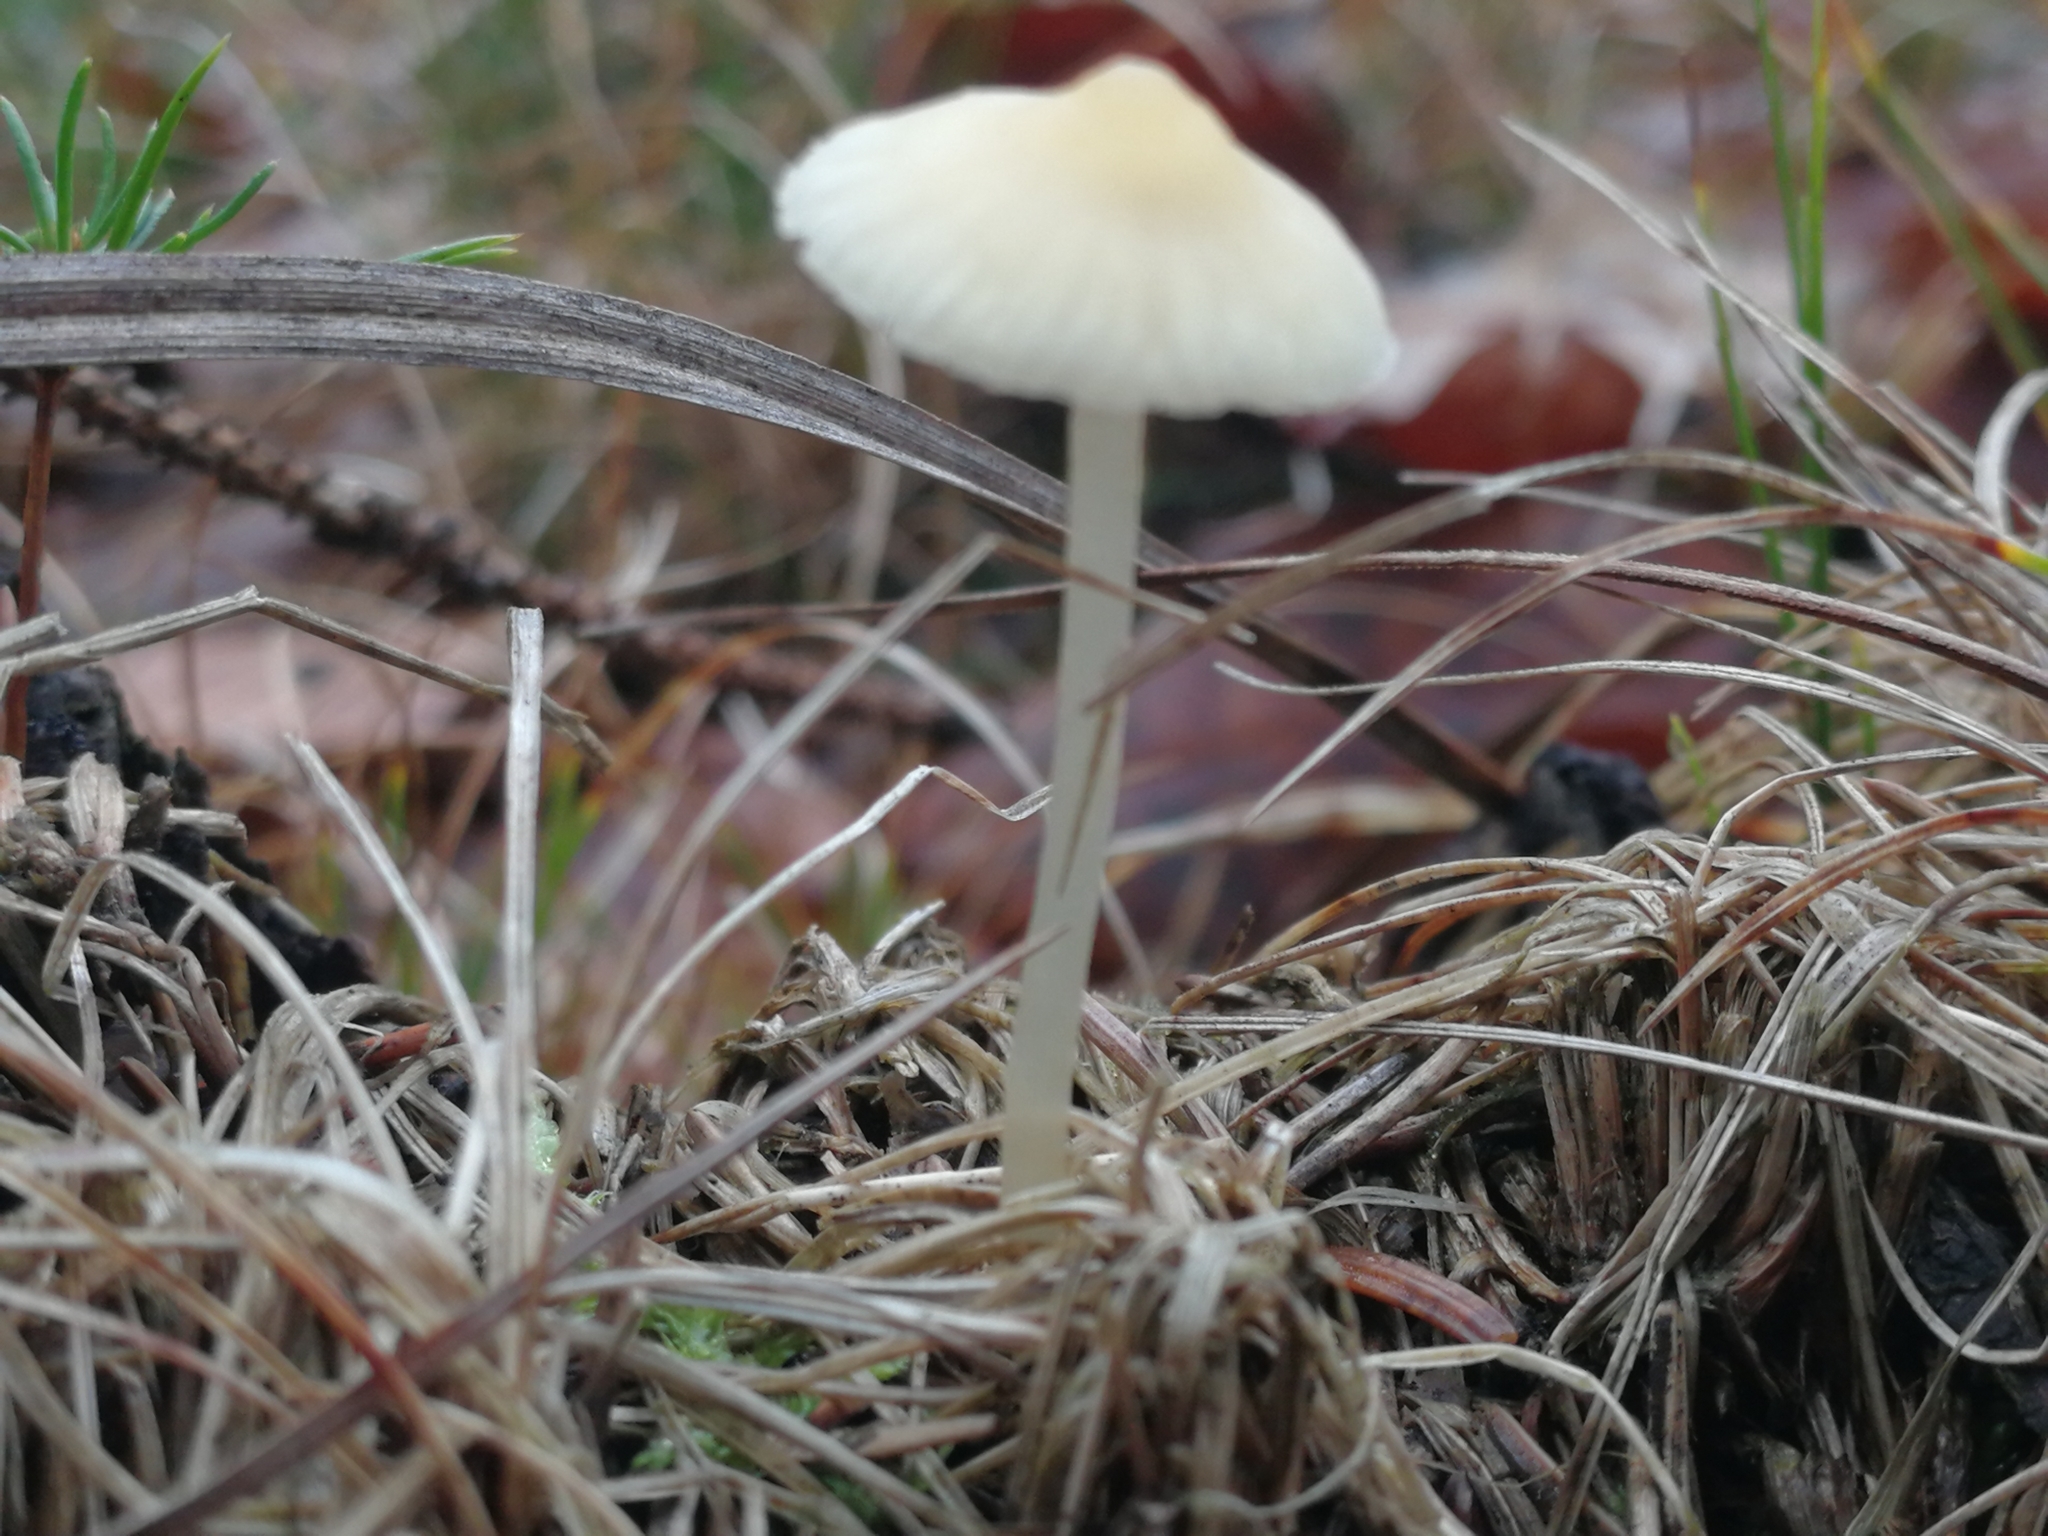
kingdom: Fungi
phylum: Basidiomycota
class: Agaricomycetes
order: Agaricales
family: Mycenaceae
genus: Atheniella
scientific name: Atheniella flavoalba
